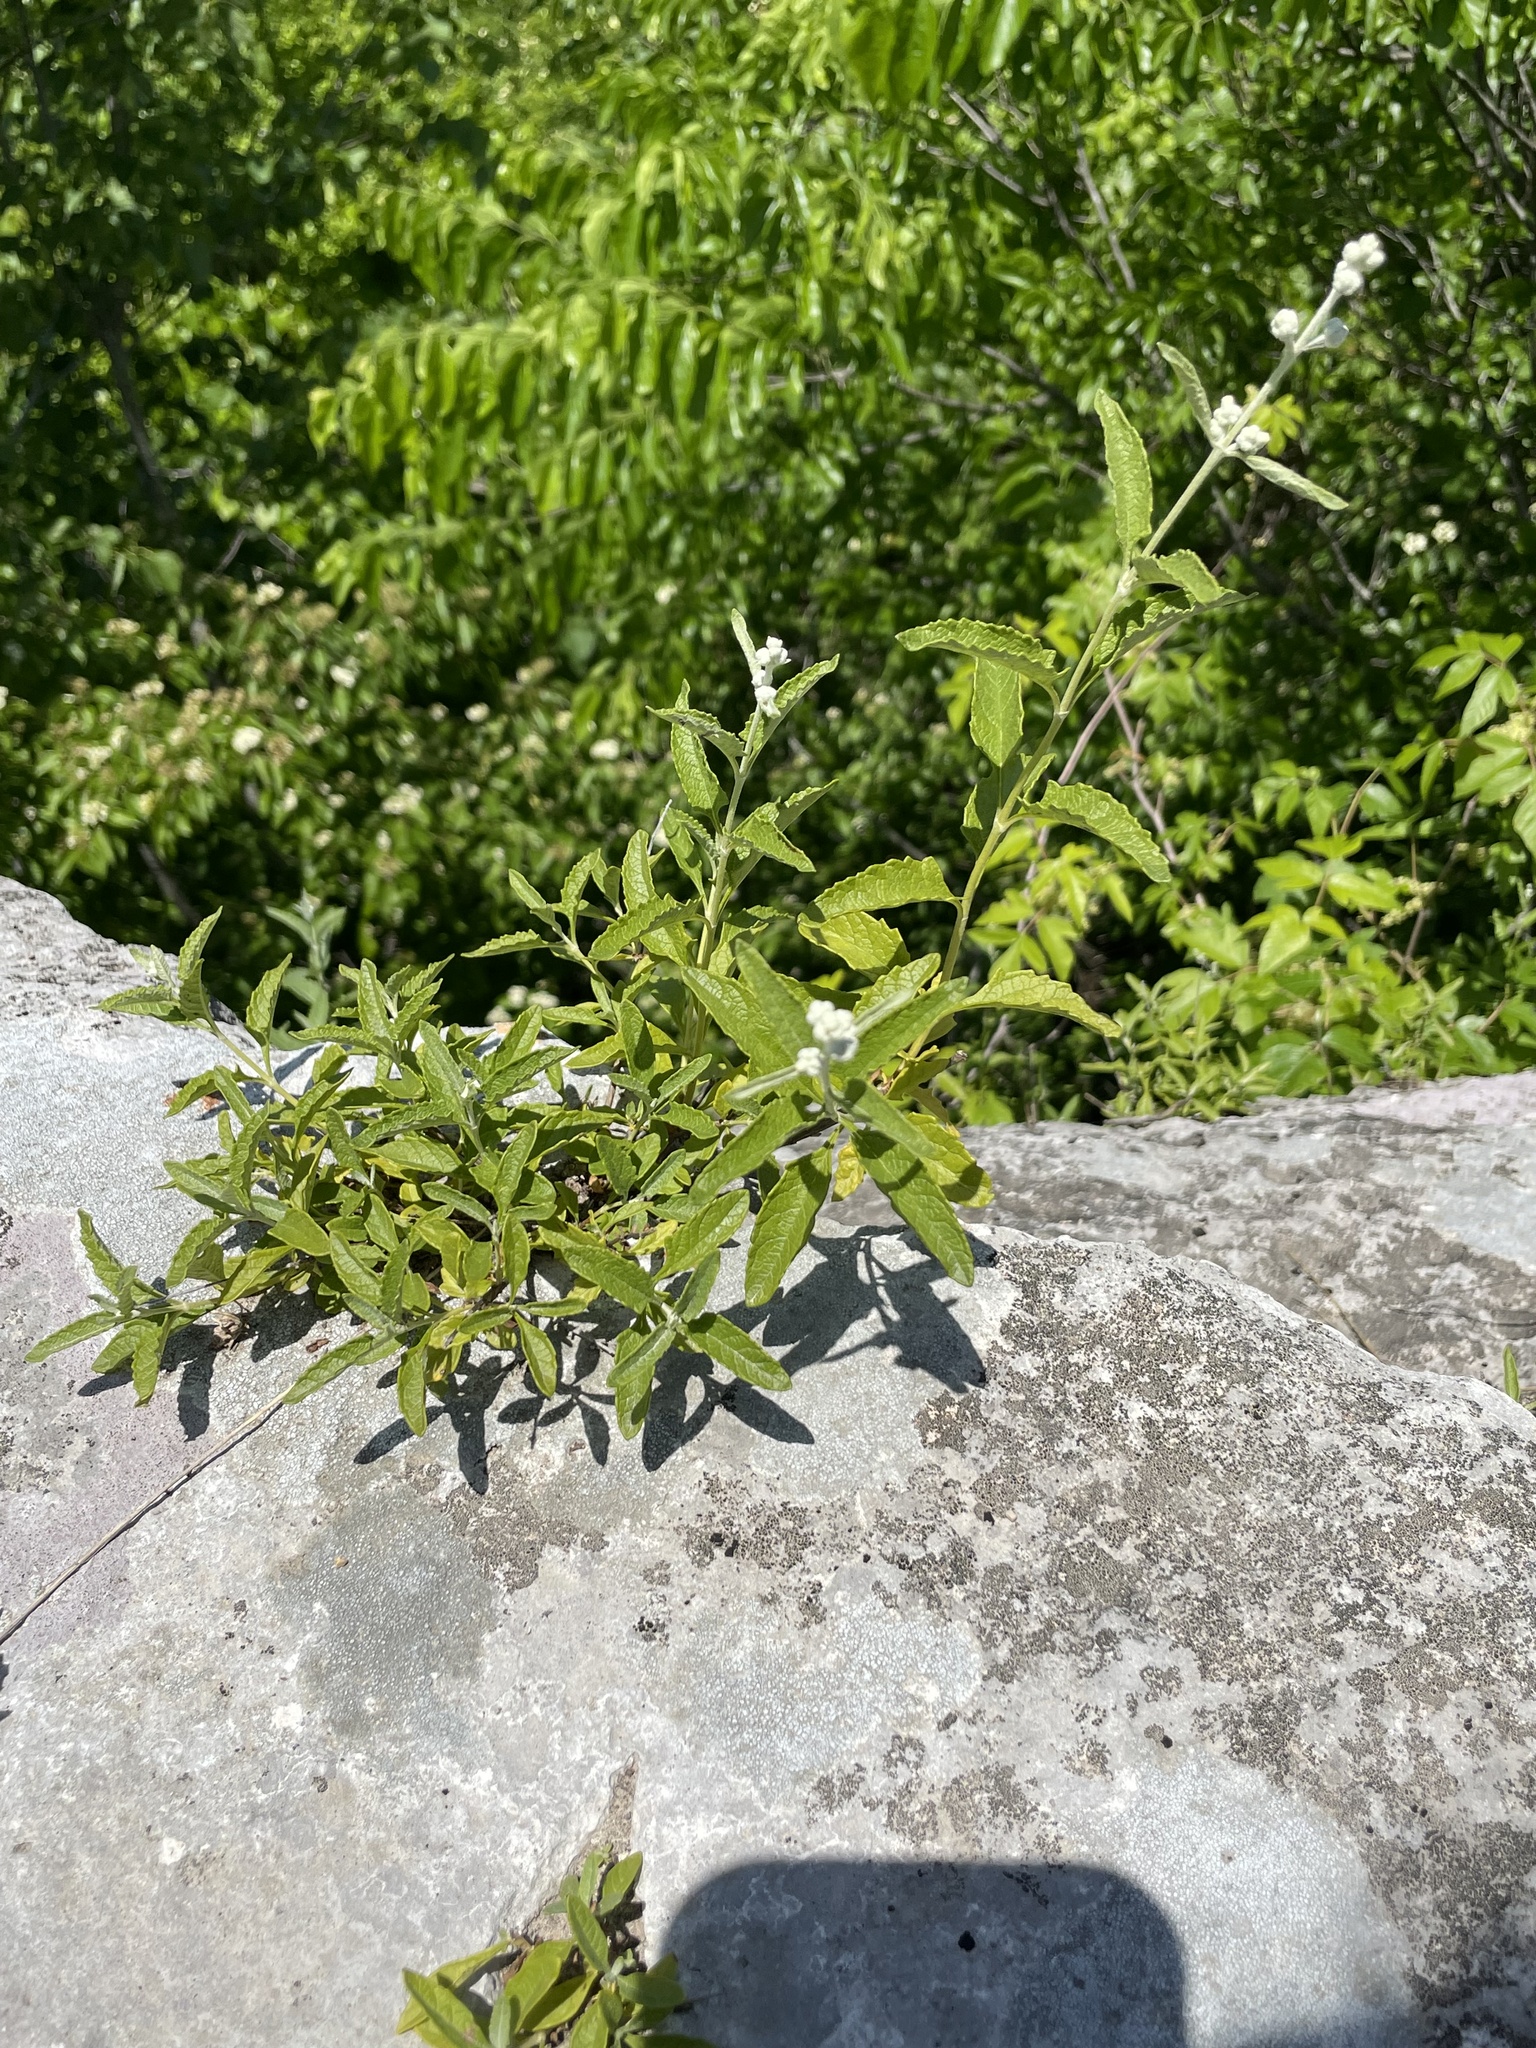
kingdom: Plantae
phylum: Tracheophyta
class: Magnoliopsida
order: Lamiales
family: Scrophulariaceae
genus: Buddleja
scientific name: Buddleja racemosa
